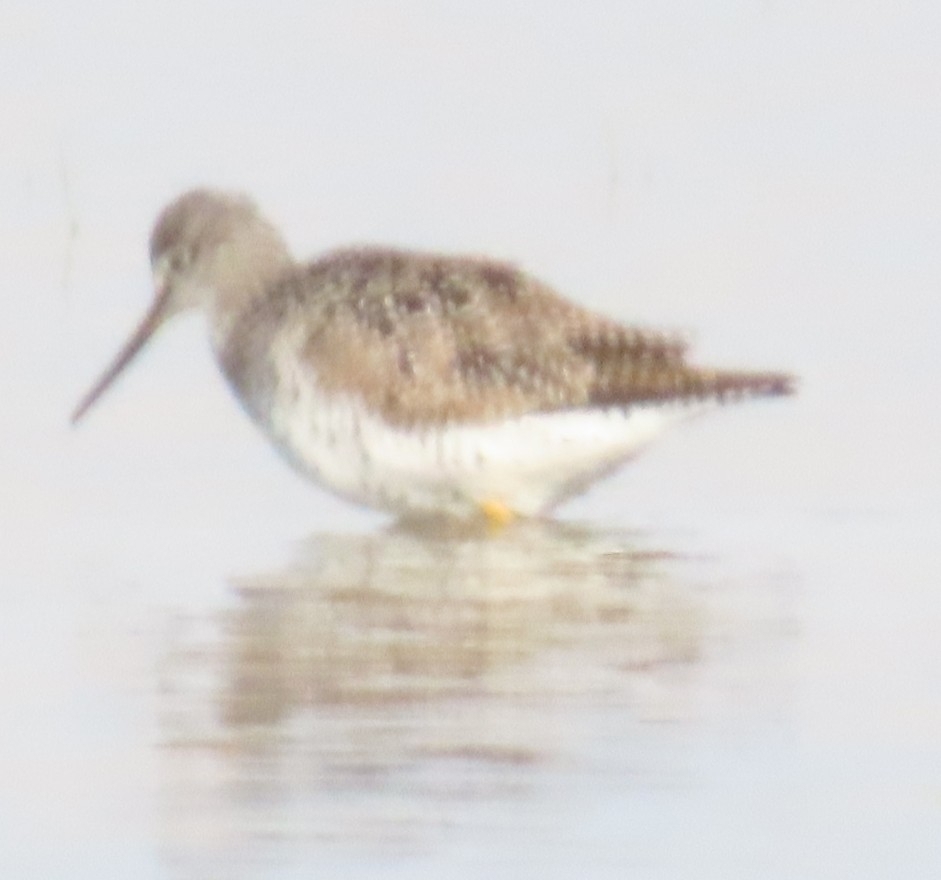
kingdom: Animalia
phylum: Chordata
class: Aves
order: Charadriiformes
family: Scolopacidae
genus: Tringa
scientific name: Tringa melanoleuca
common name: Greater yellowlegs
